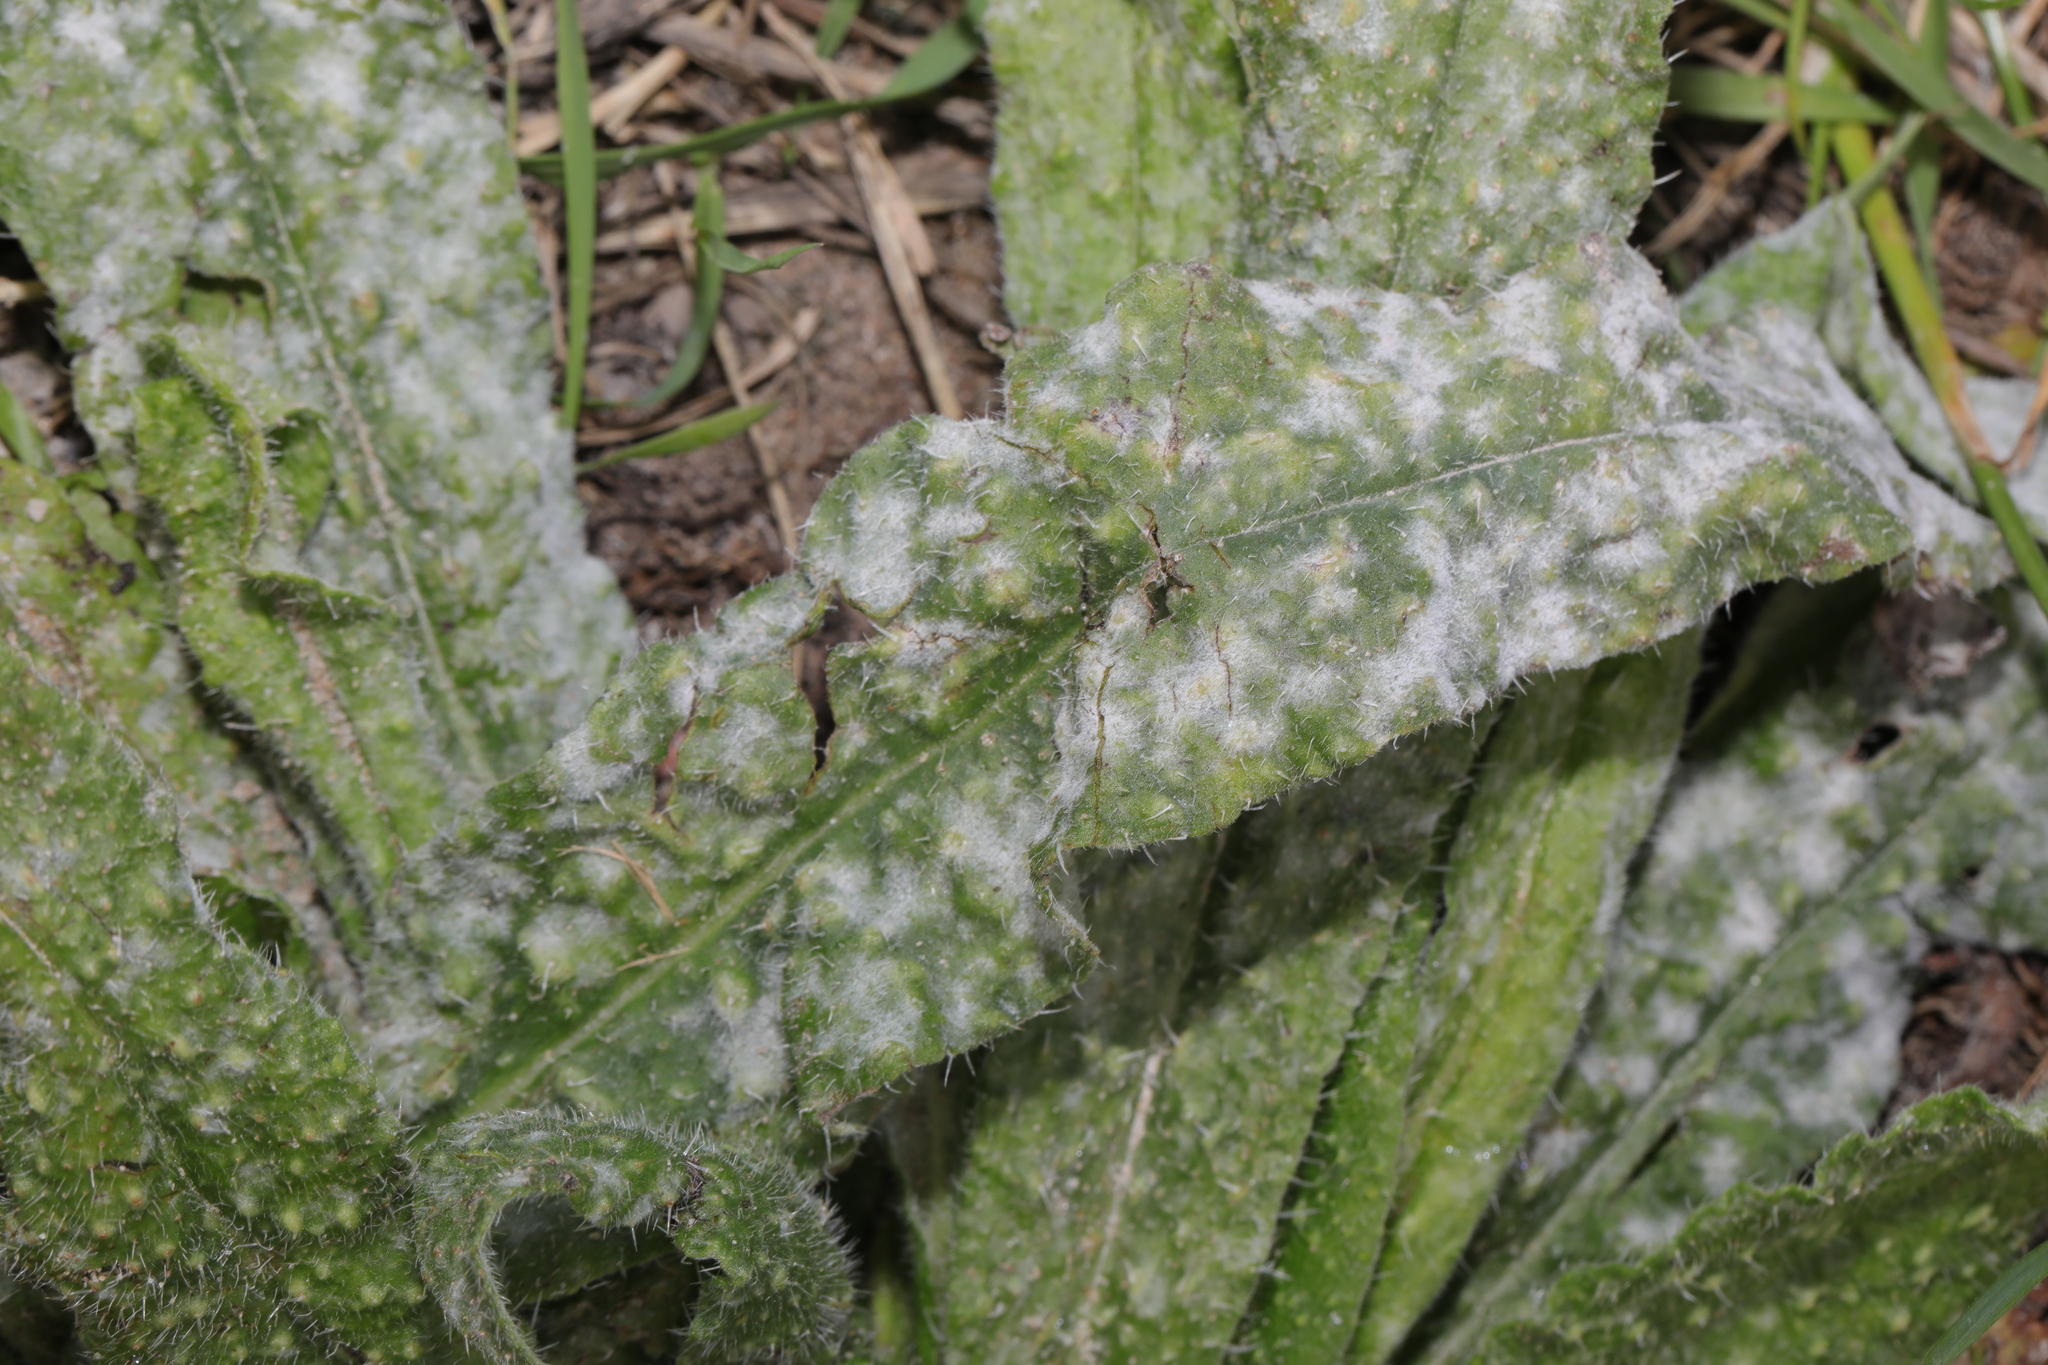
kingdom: Fungi
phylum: Ascomycota
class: Leotiomycetes
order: Helotiales
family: Erysiphaceae
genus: Golovinomyces
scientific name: Golovinomyces
